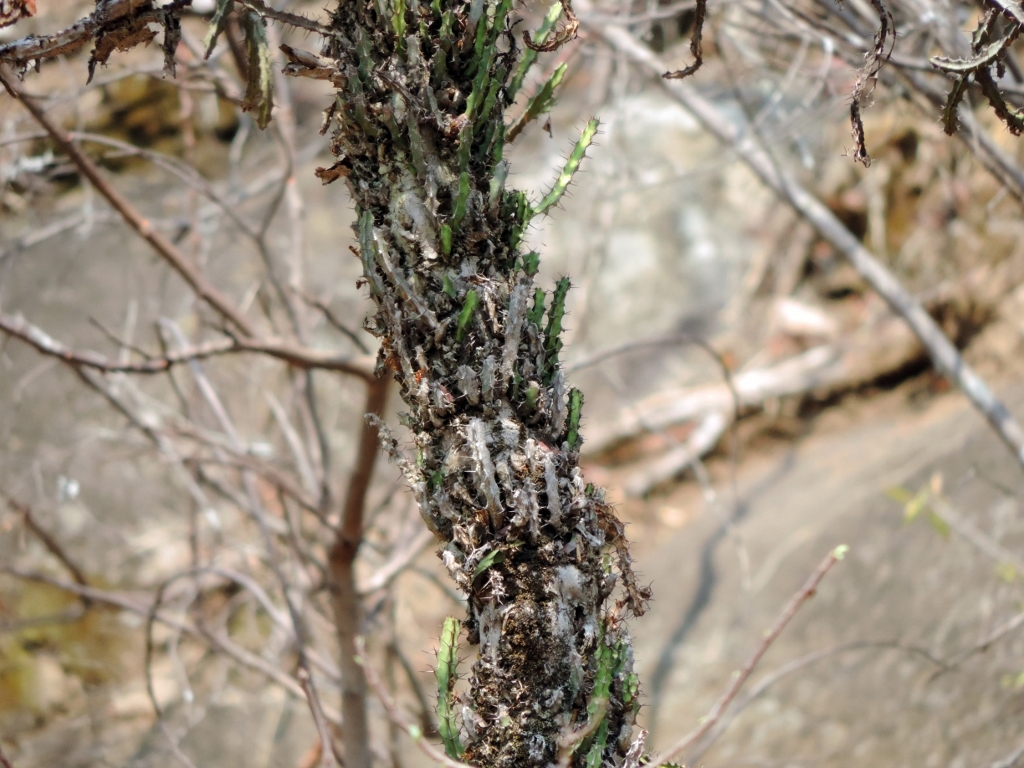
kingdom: Plantae
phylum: Tracheophyta
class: Magnoliopsida
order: Malpighiales
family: Euphorbiaceae
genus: Euphorbia
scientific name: Euphorbia griseola
